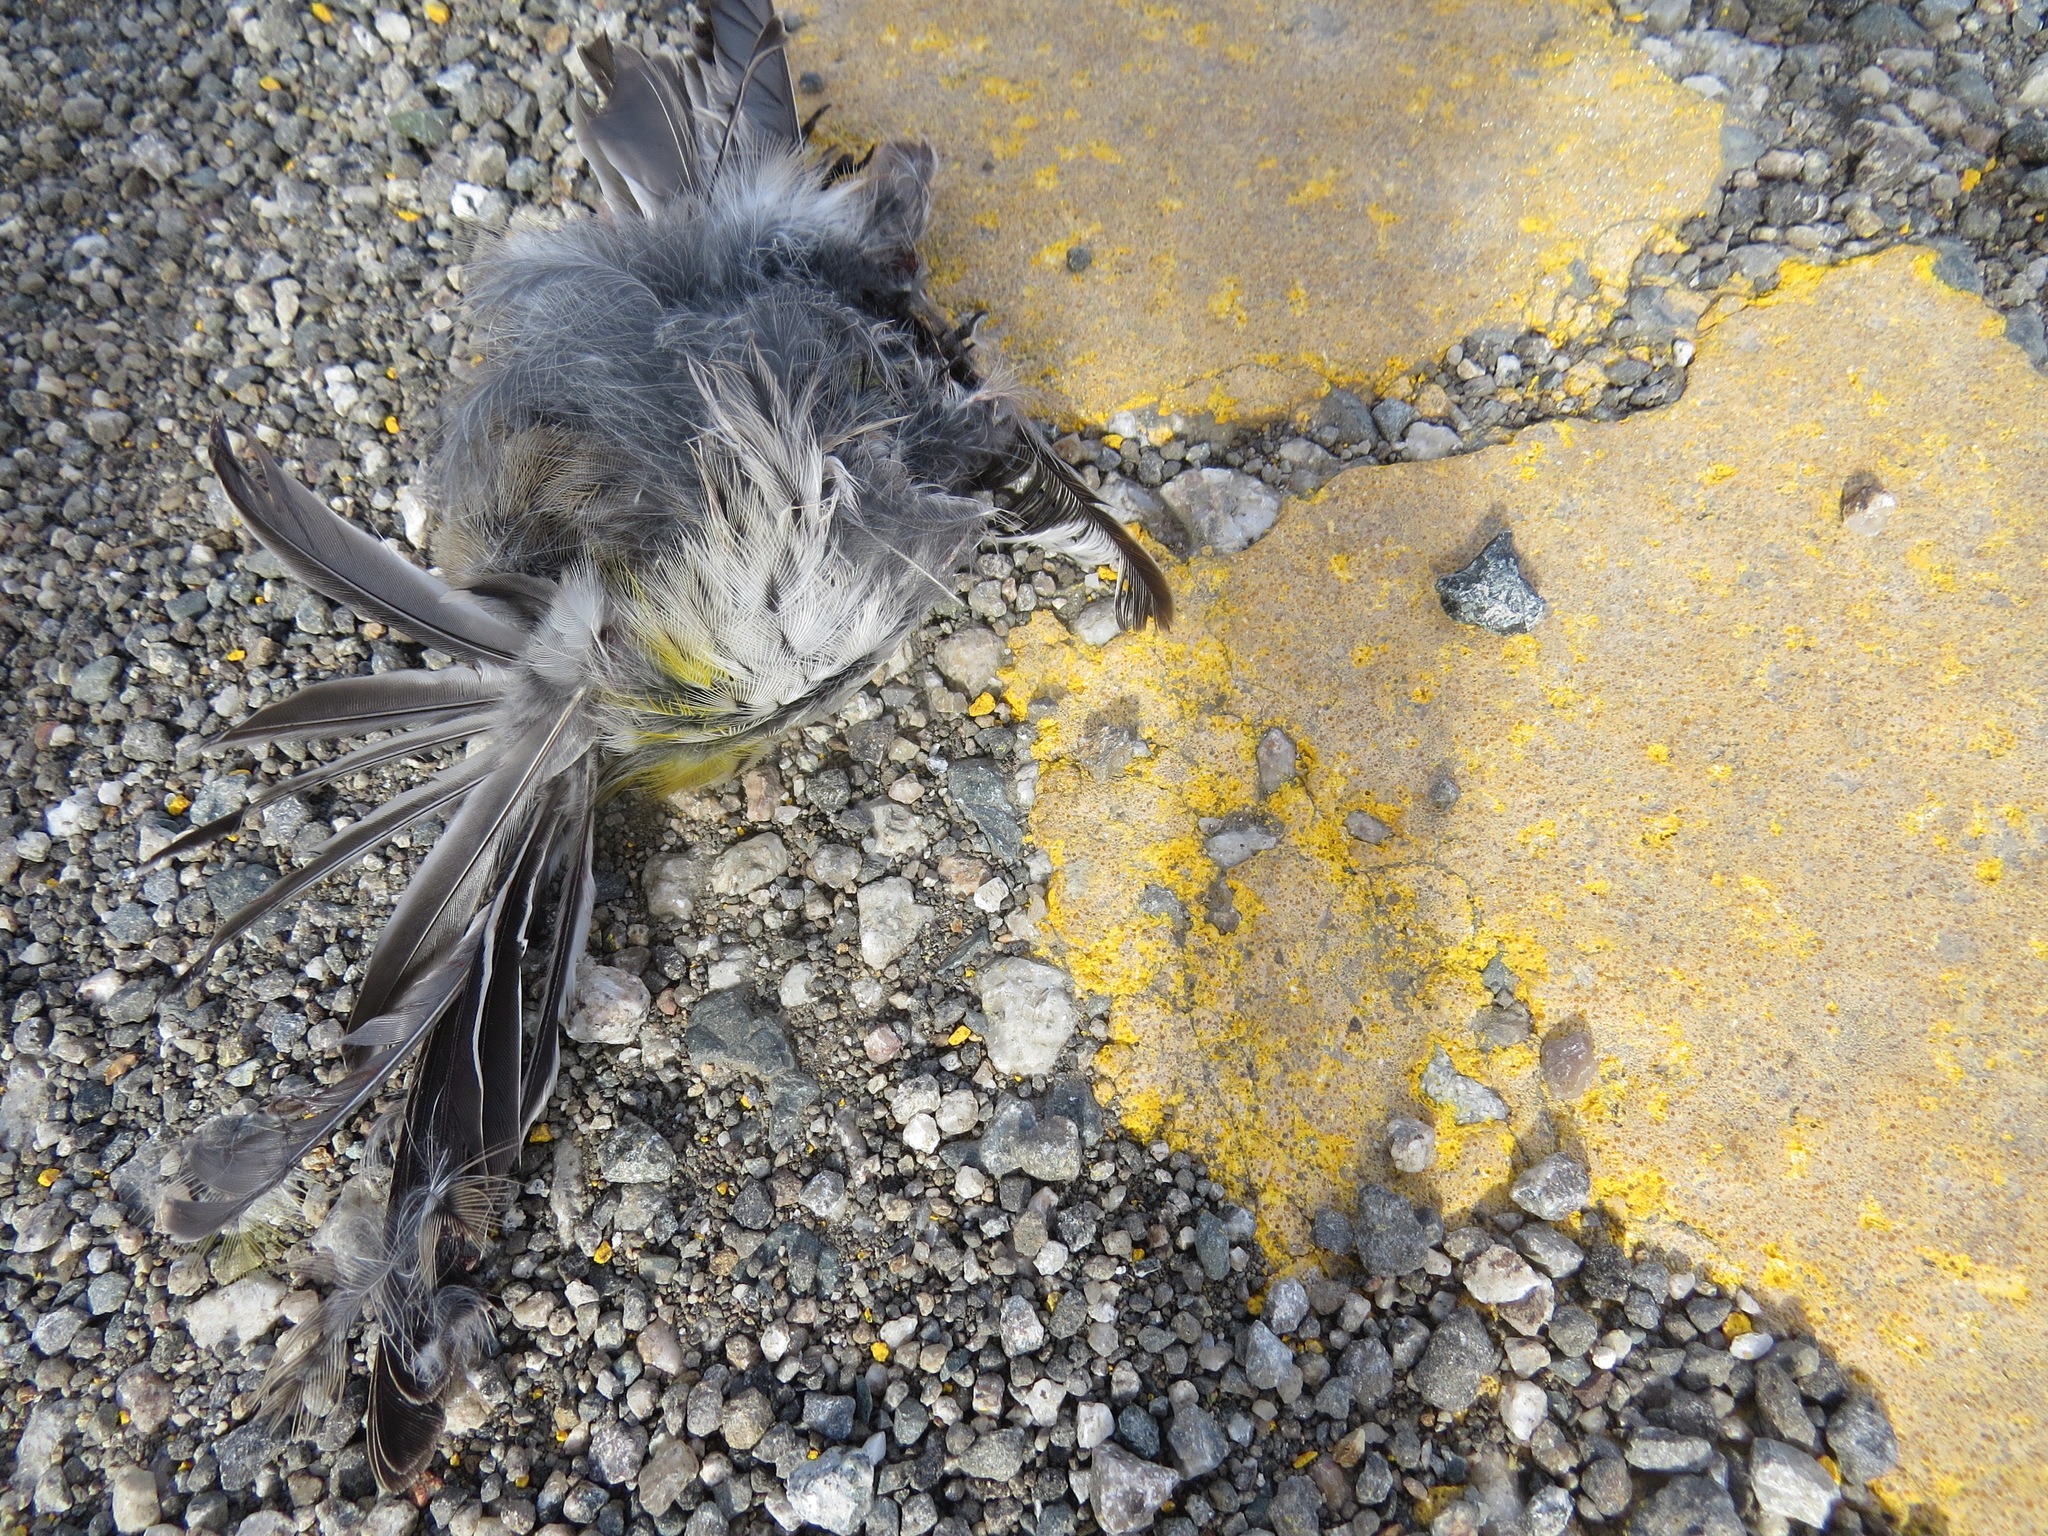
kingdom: Animalia
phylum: Chordata
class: Aves
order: Passeriformes
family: Parulidae
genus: Setophaga
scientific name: Setophaga coronata
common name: Myrtle warbler
